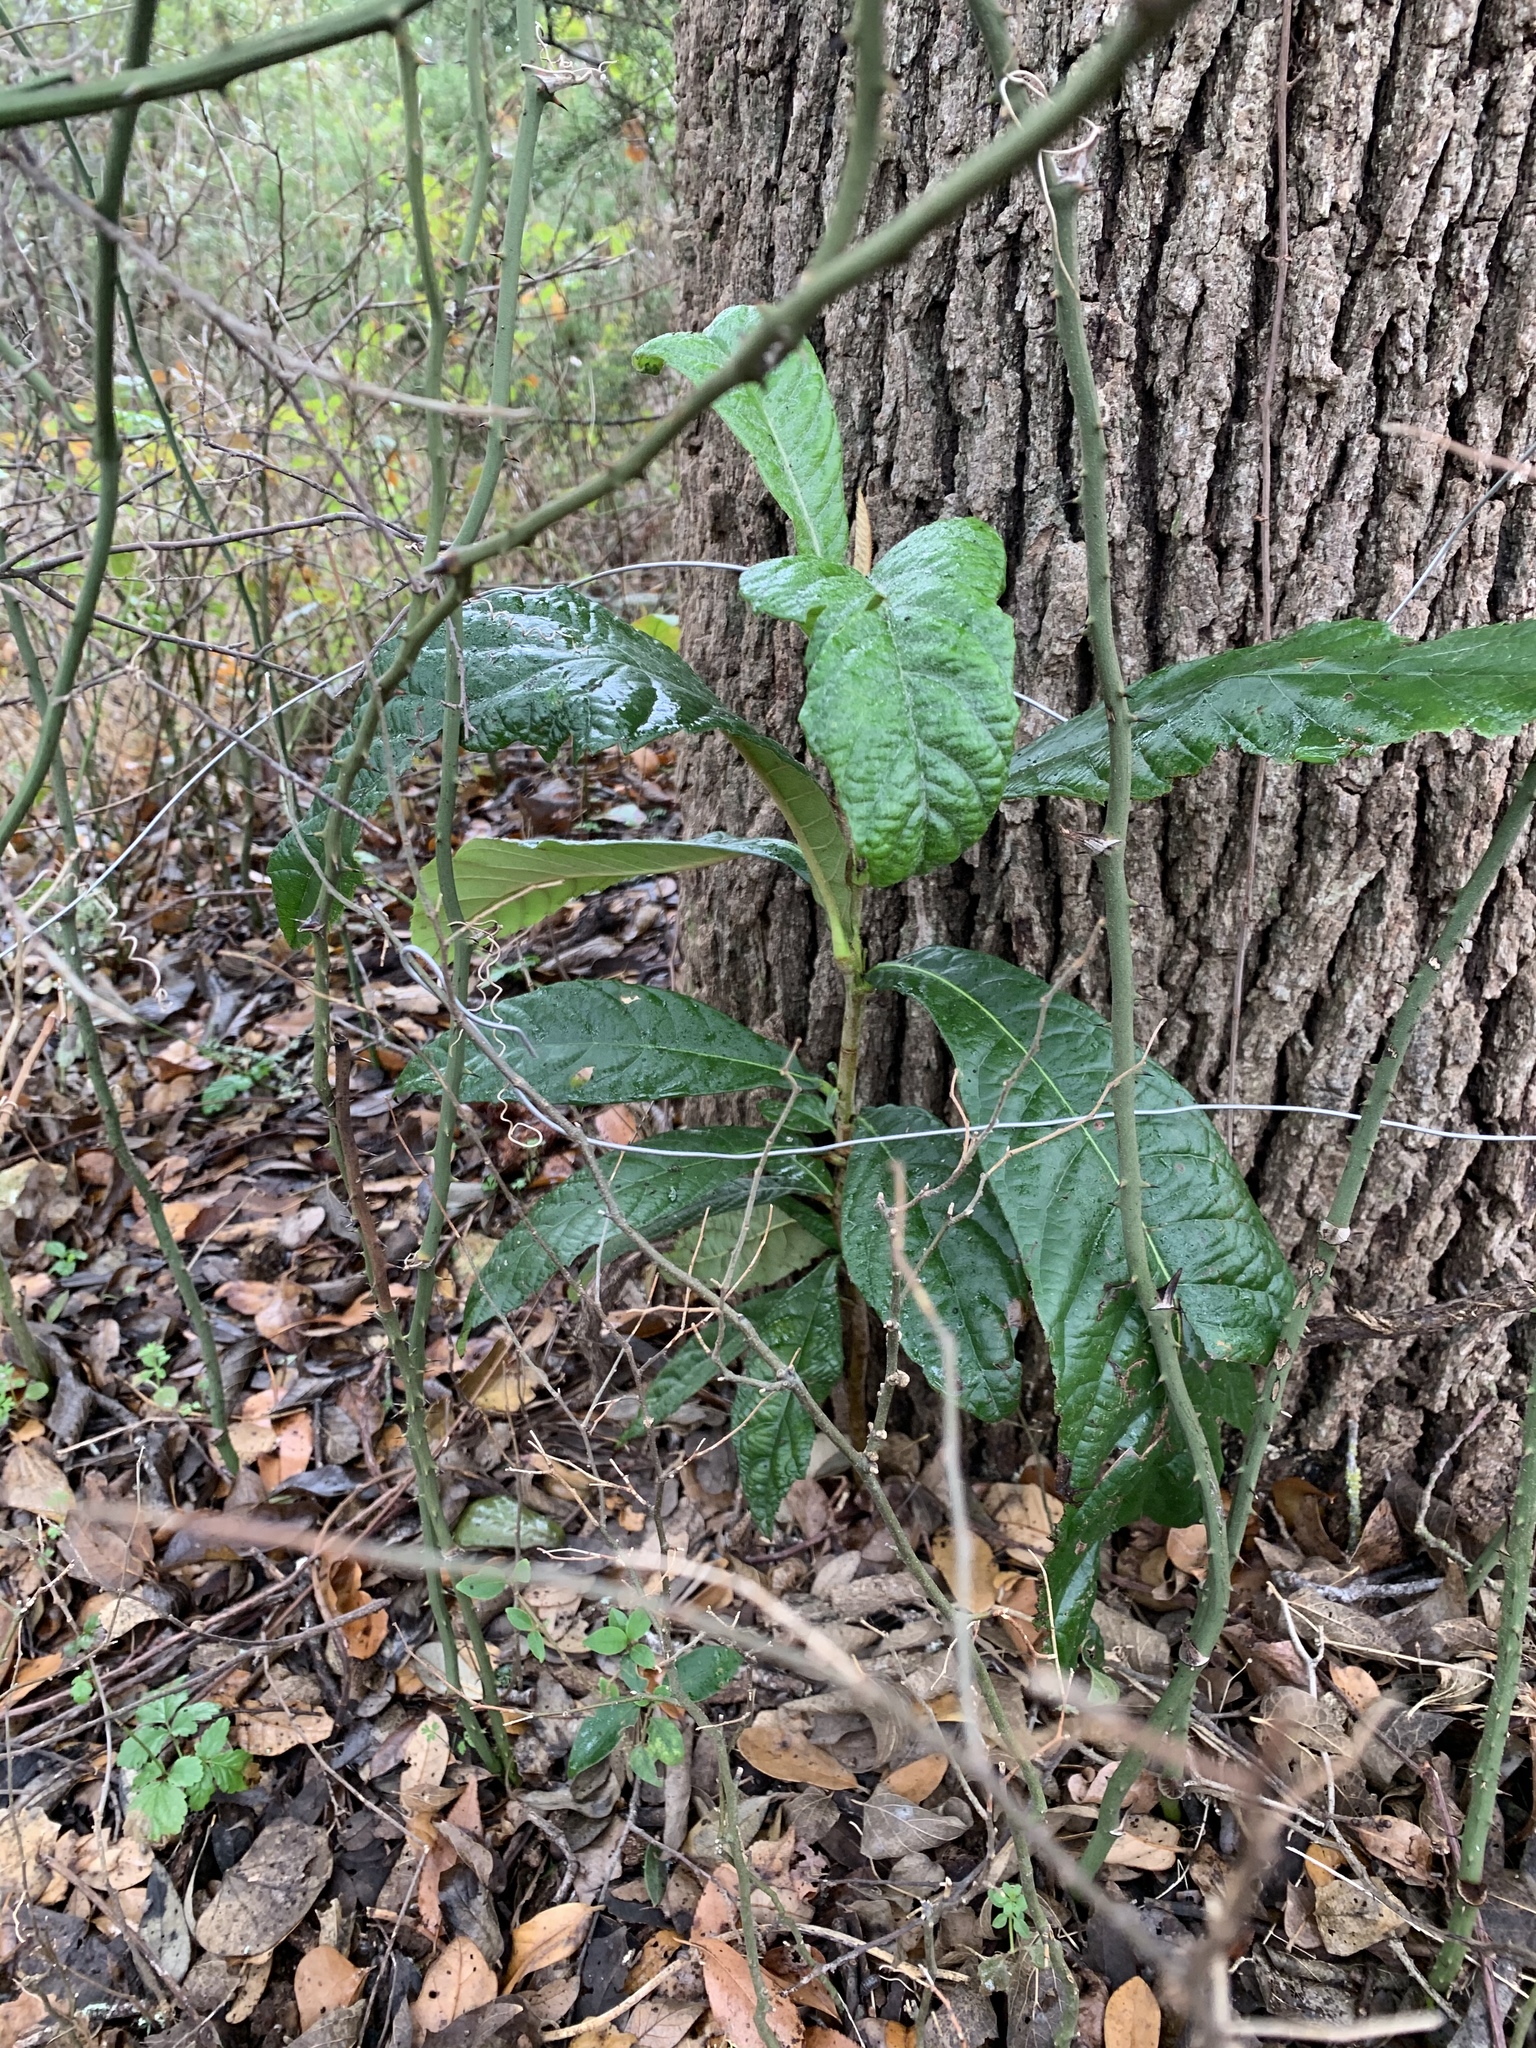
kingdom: Plantae
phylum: Tracheophyta
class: Magnoliopsida
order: Rosales
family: Rosaceae
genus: Rhaphiolepis
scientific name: Rhaphiolepis bibas
